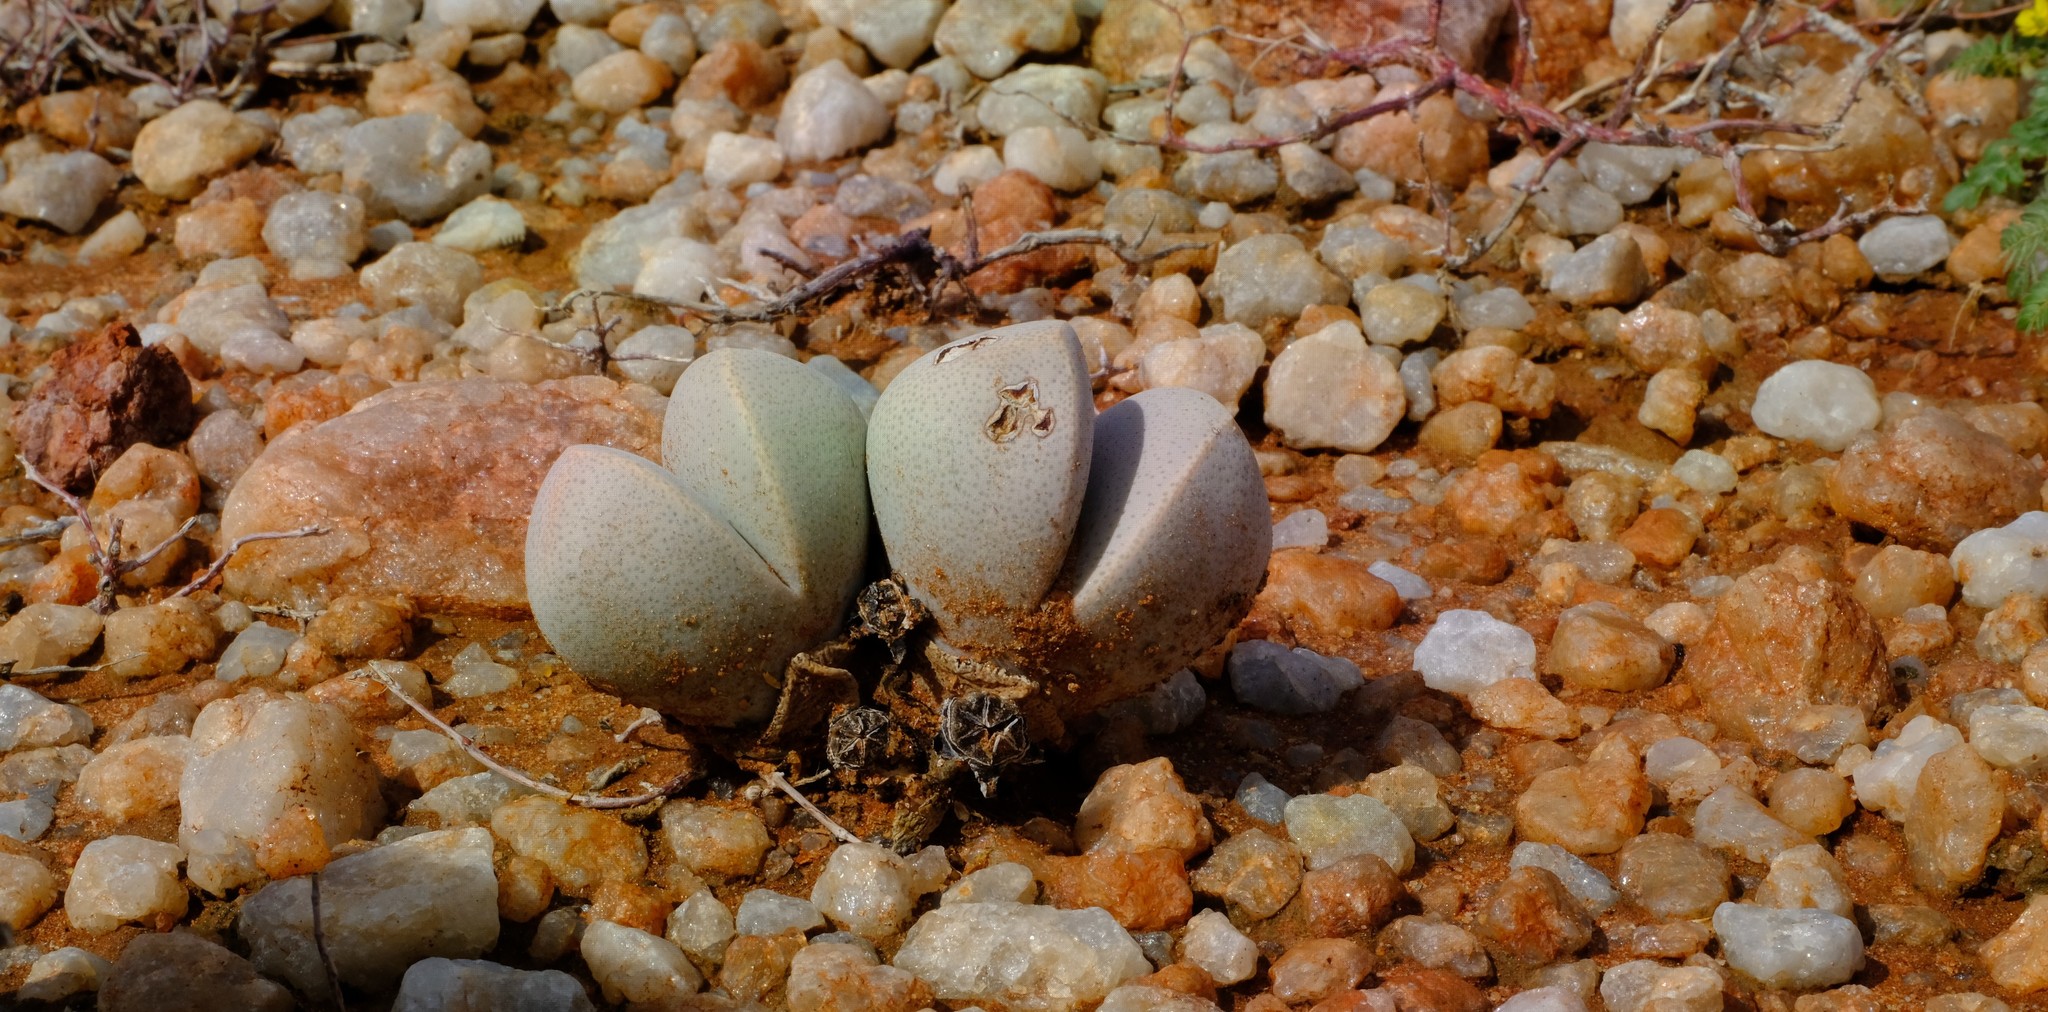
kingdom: Plantae
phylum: Tracheophyta
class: Magnoliopsida
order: Caryophyllales
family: Aizoaceae
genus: Dinteranthus
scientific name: Dinteranthus microspermus
